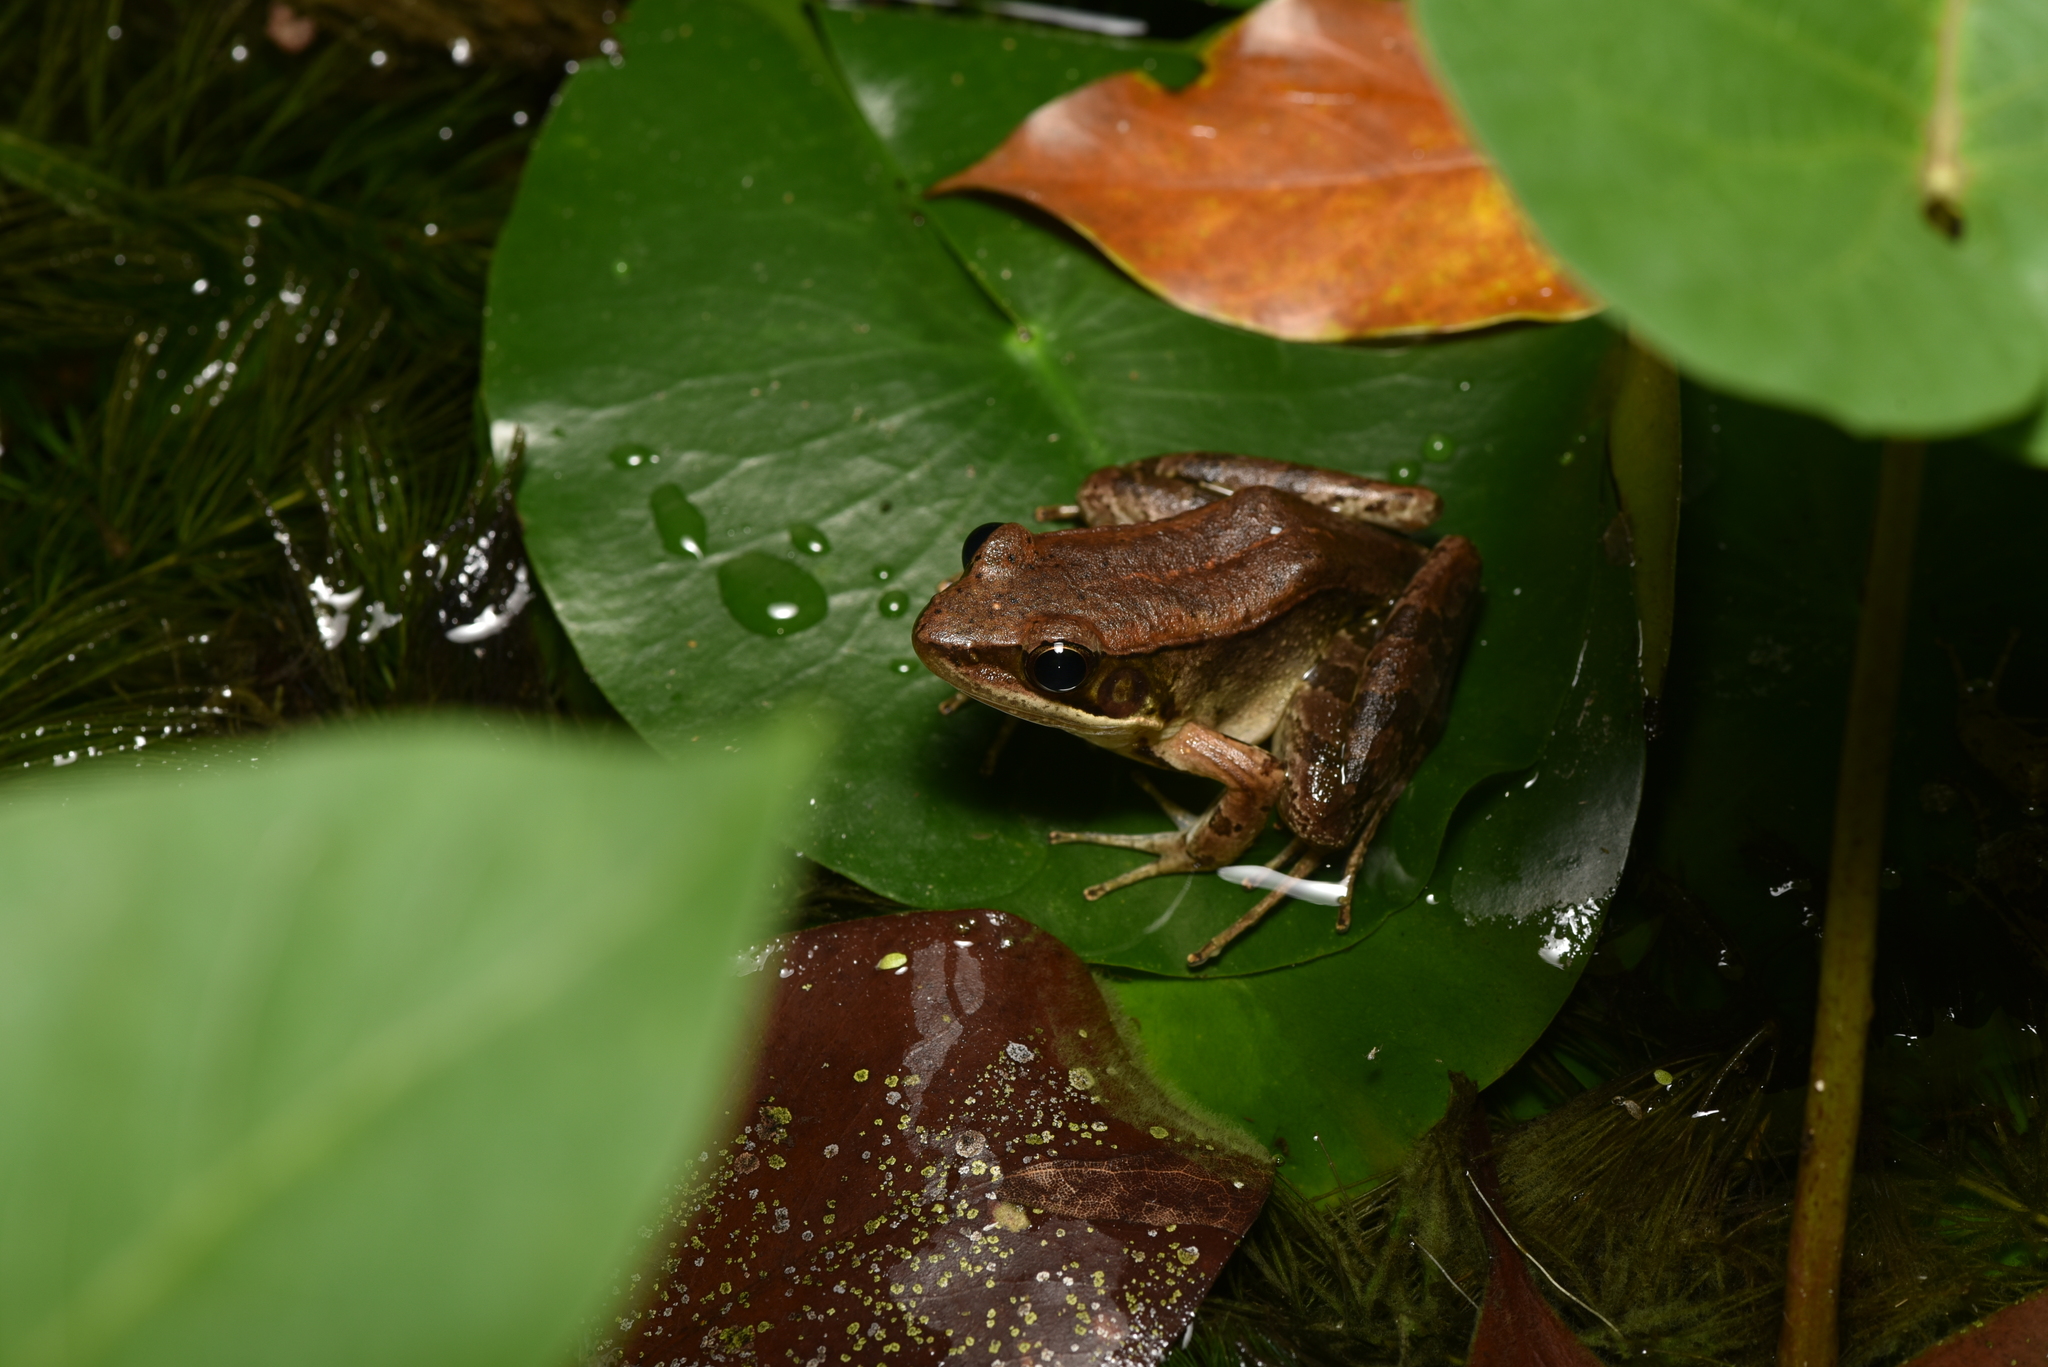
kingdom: Animalia
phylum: Chordata
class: Amphibia
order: Anura
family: Ranidae
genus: Nidirana
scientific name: Nidirana adenopleura
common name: Olive frog
